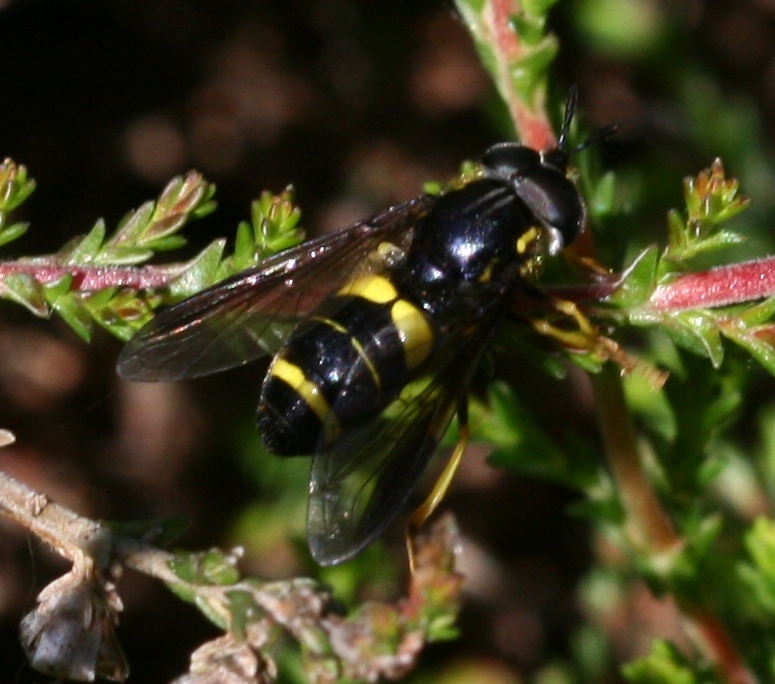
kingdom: Animalia
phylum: Arthropoda
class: Insecta
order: Diptera
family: Syrphidae
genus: Chrysotoxum
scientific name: Chrysotoxum bicincta
